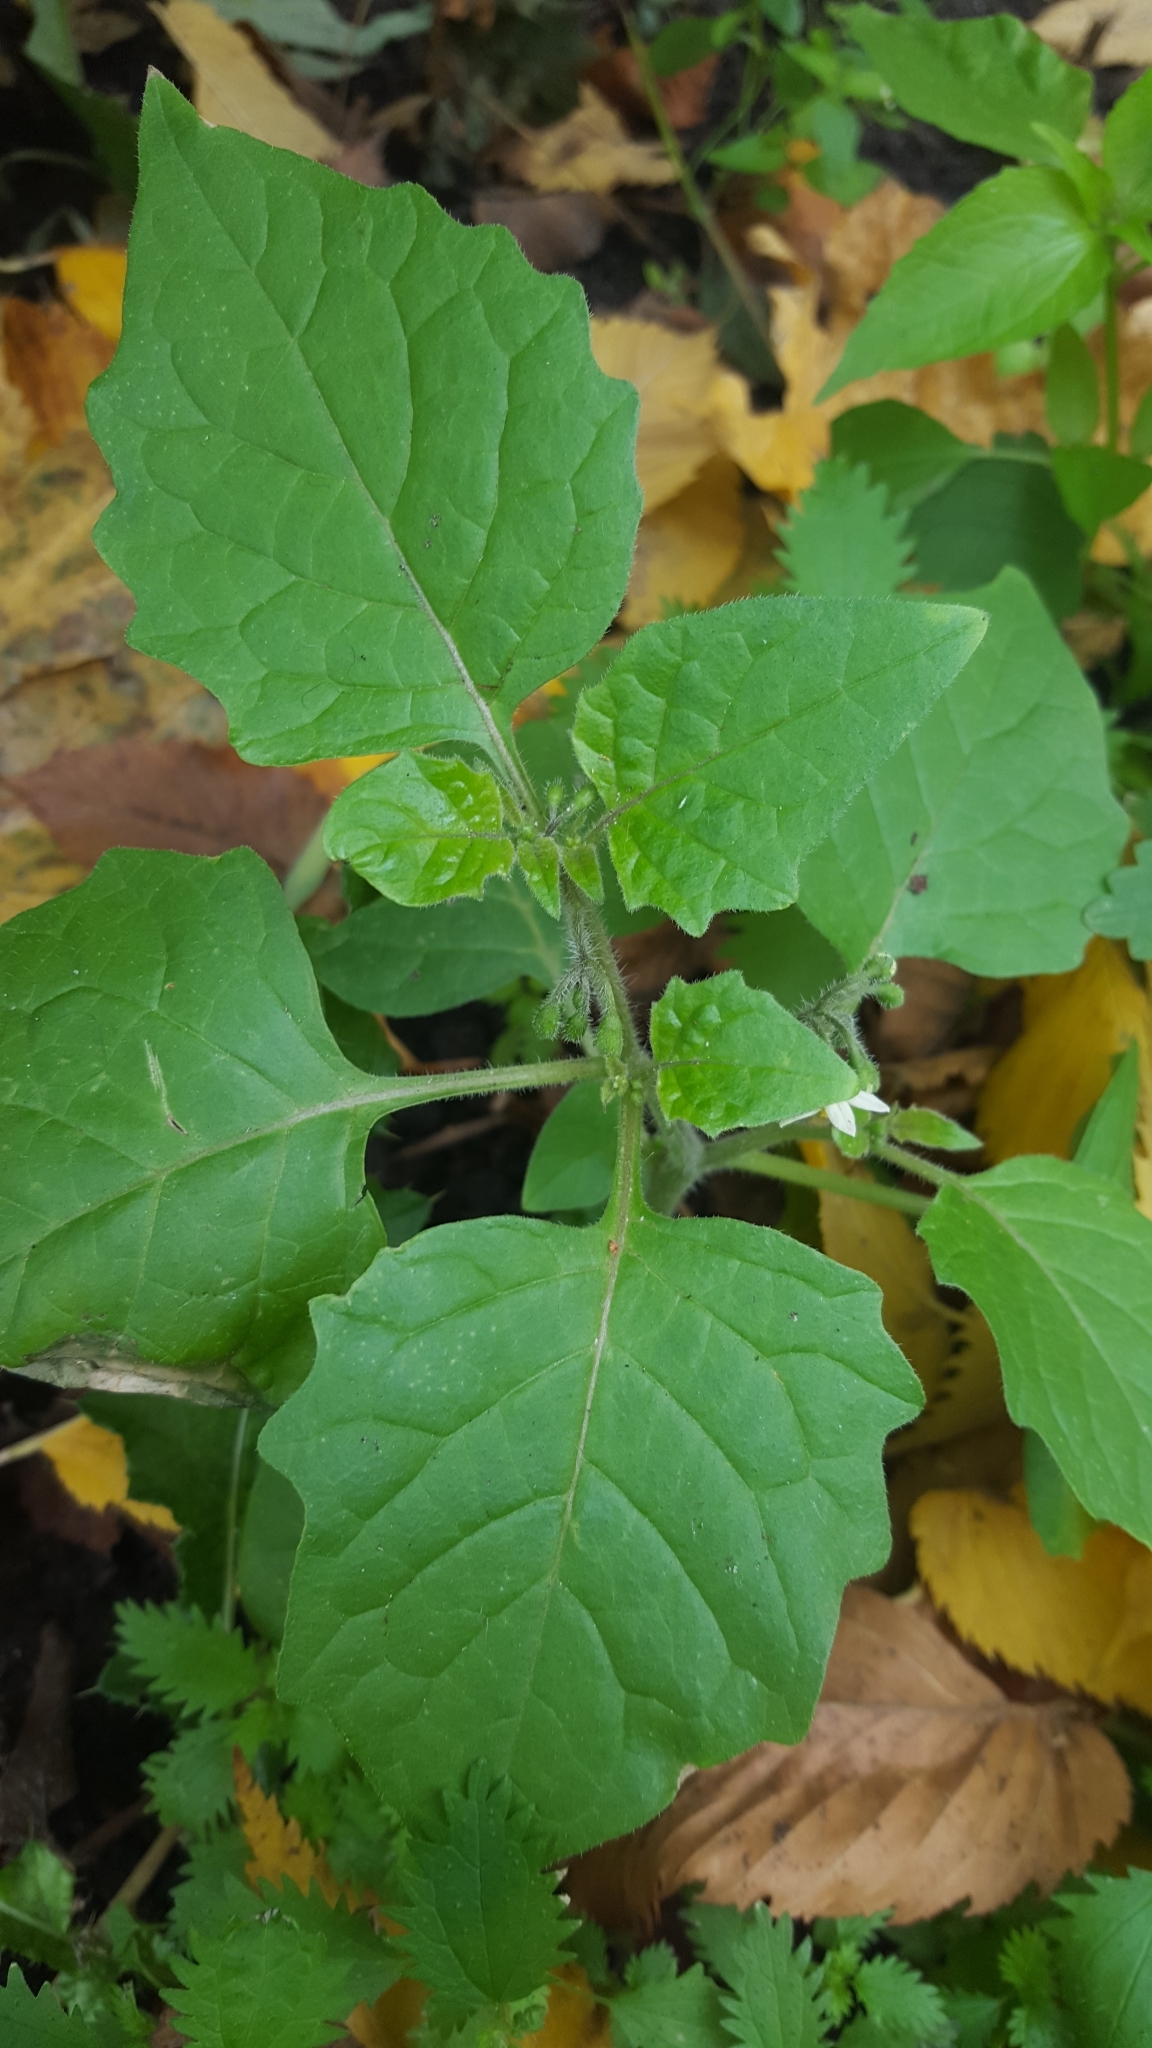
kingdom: Plantae
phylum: Tracheophyta
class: Magnoliopsida
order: Solanales
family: Solanaceae
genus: Solanum
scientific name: Solanum nigrum
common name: Black nightshade
